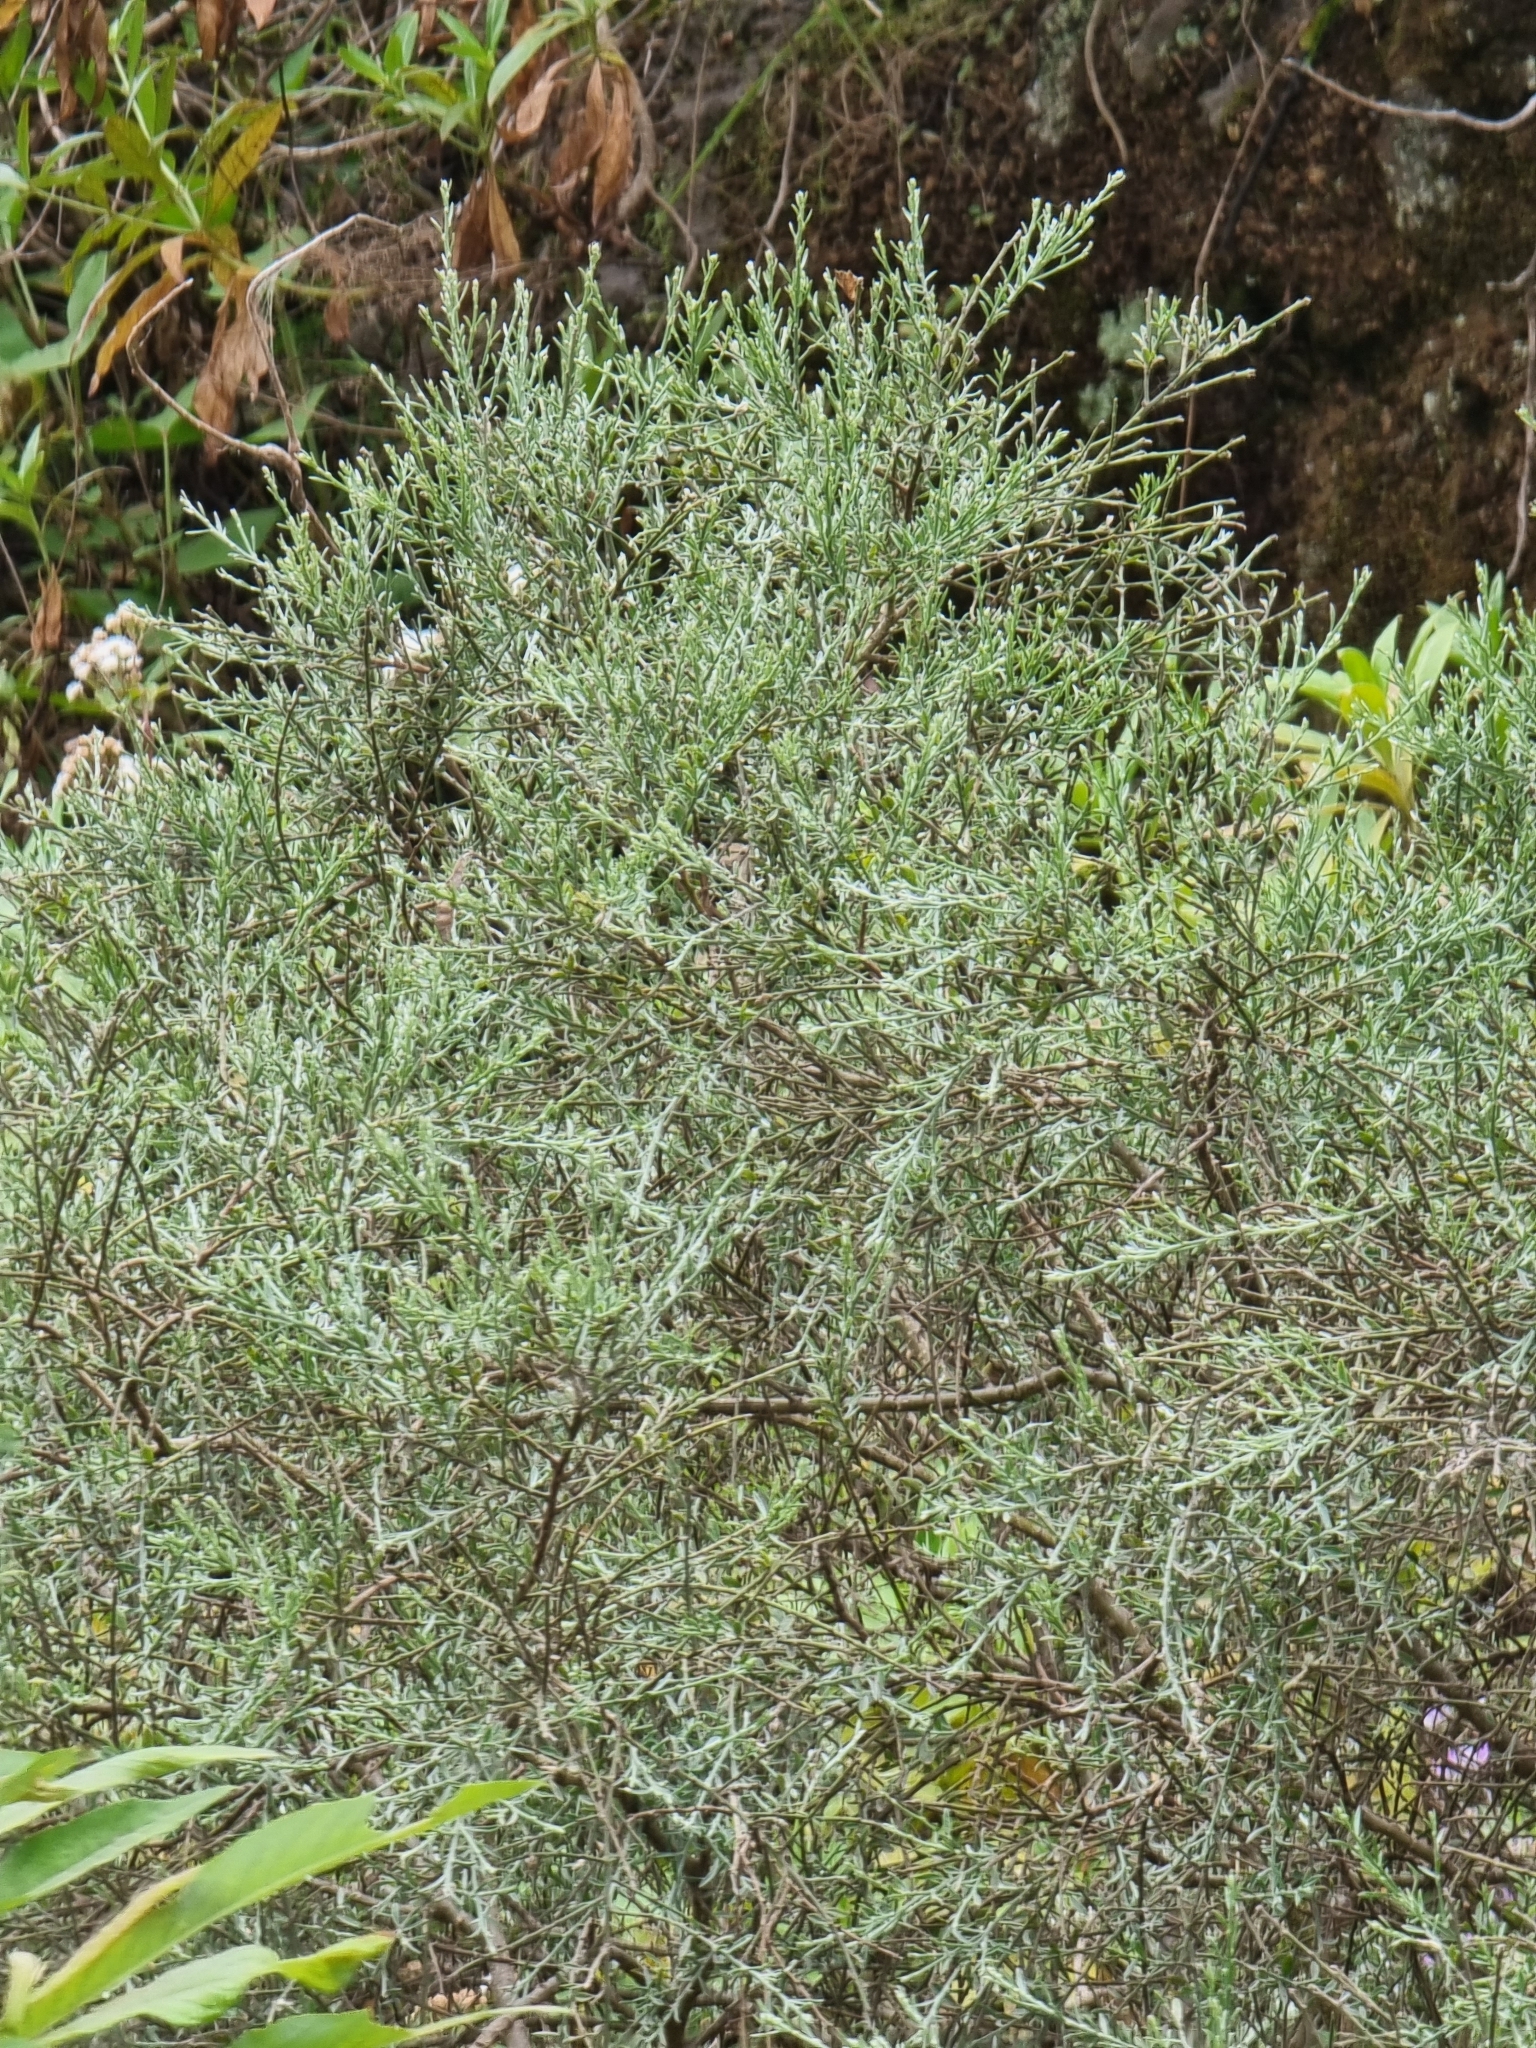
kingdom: Plantae
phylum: Tracheophyta
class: Magnoliopsida
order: Fabales
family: Fabaceae
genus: Genista
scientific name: Genista tenera
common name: Madeira broom
